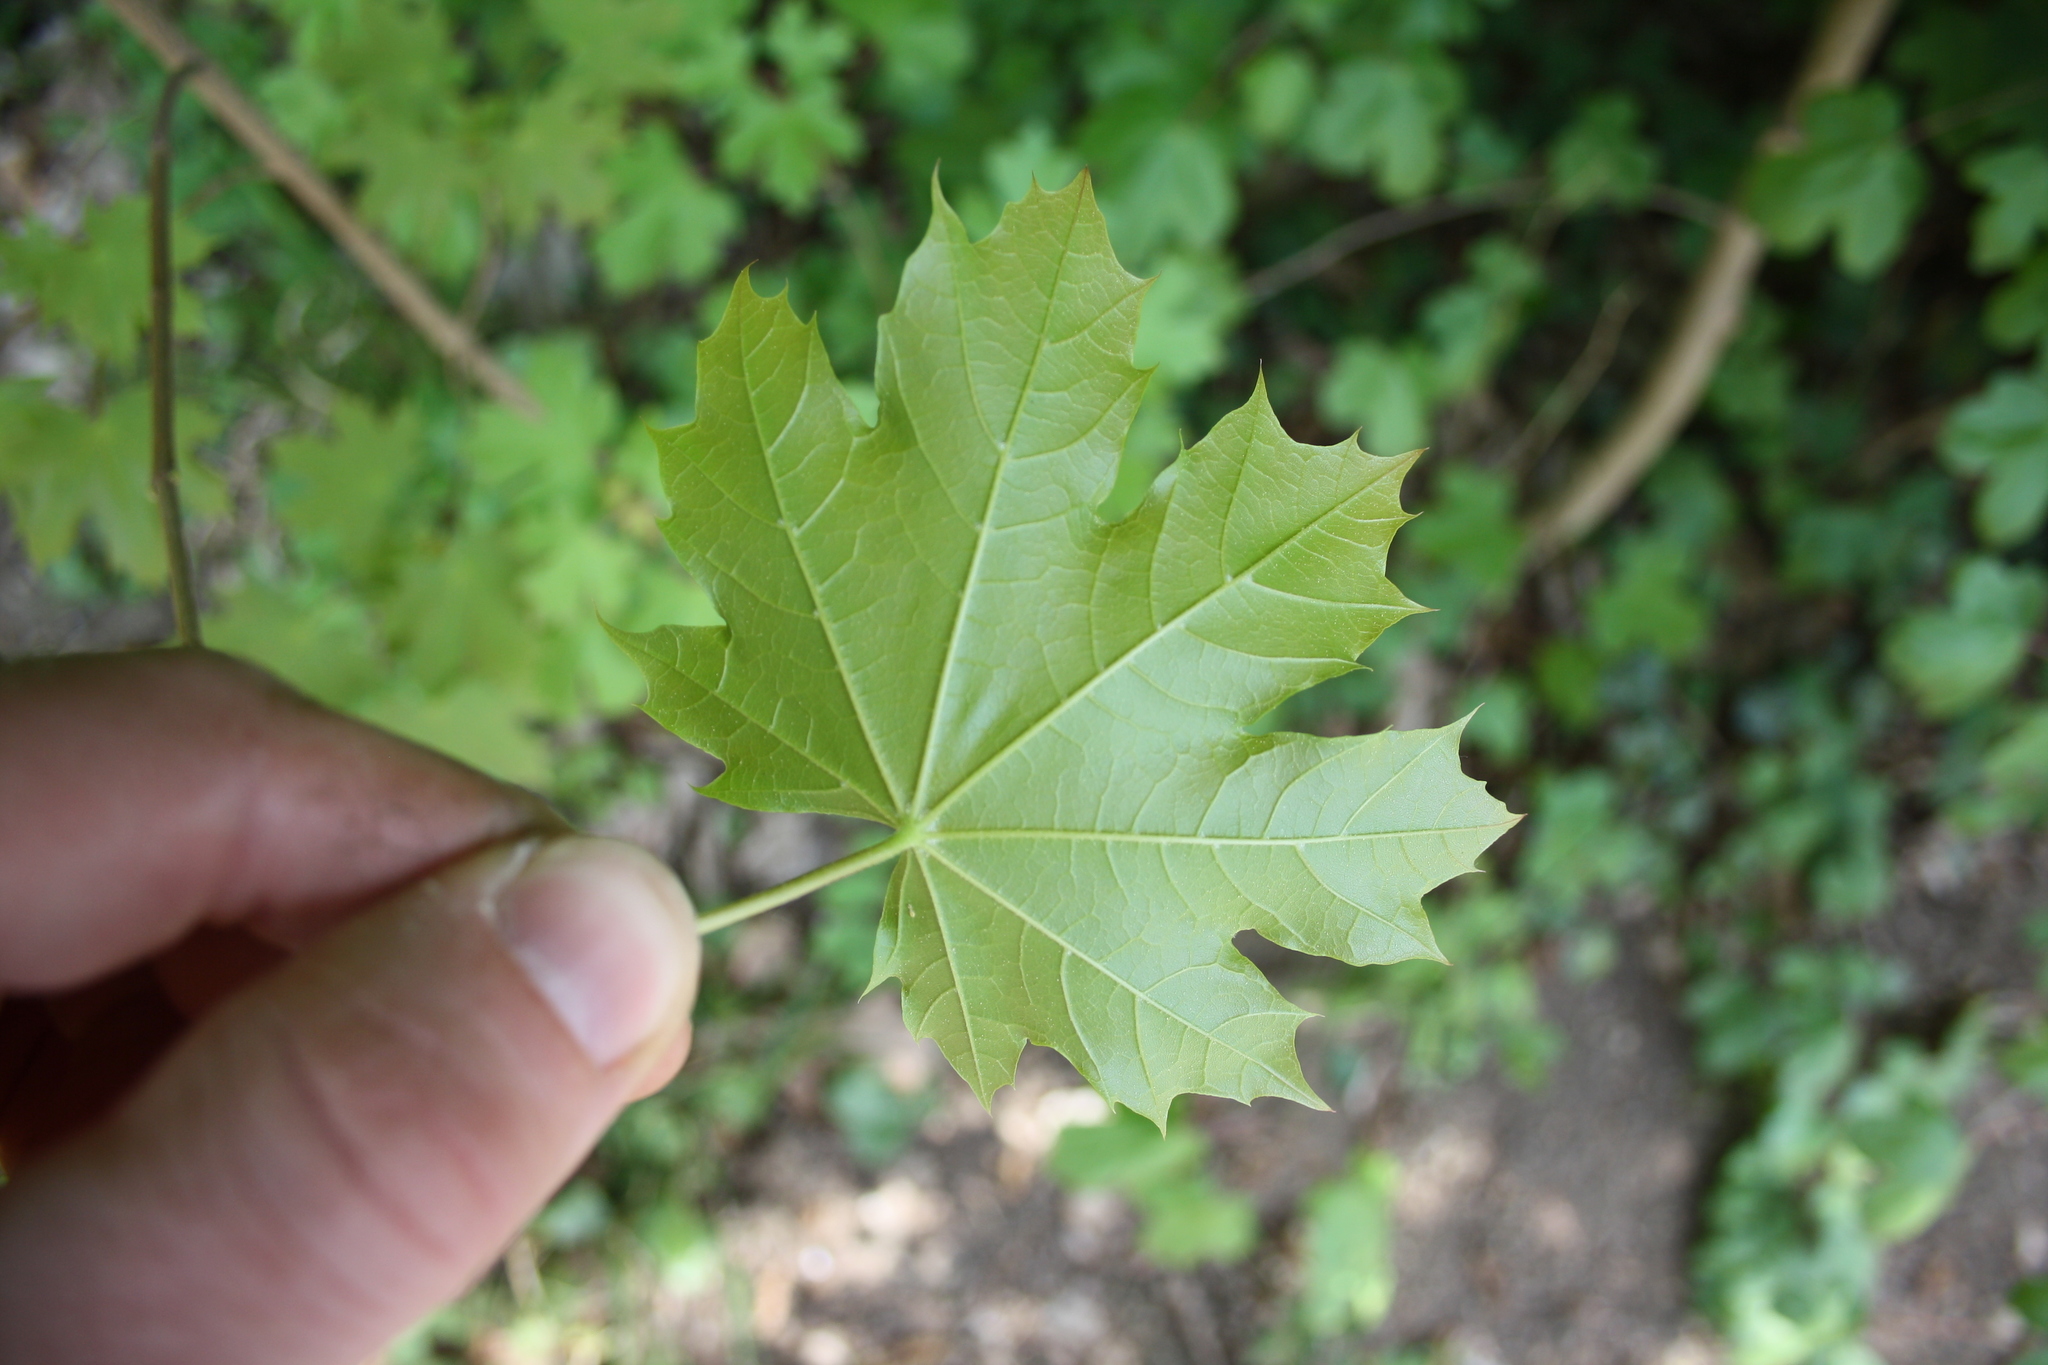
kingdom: Plantae
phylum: Tracheophyta
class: Magnoliopsida
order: Sapindales
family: Sapindaceae
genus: Acer
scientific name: Acer platanoides
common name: Norway maple
